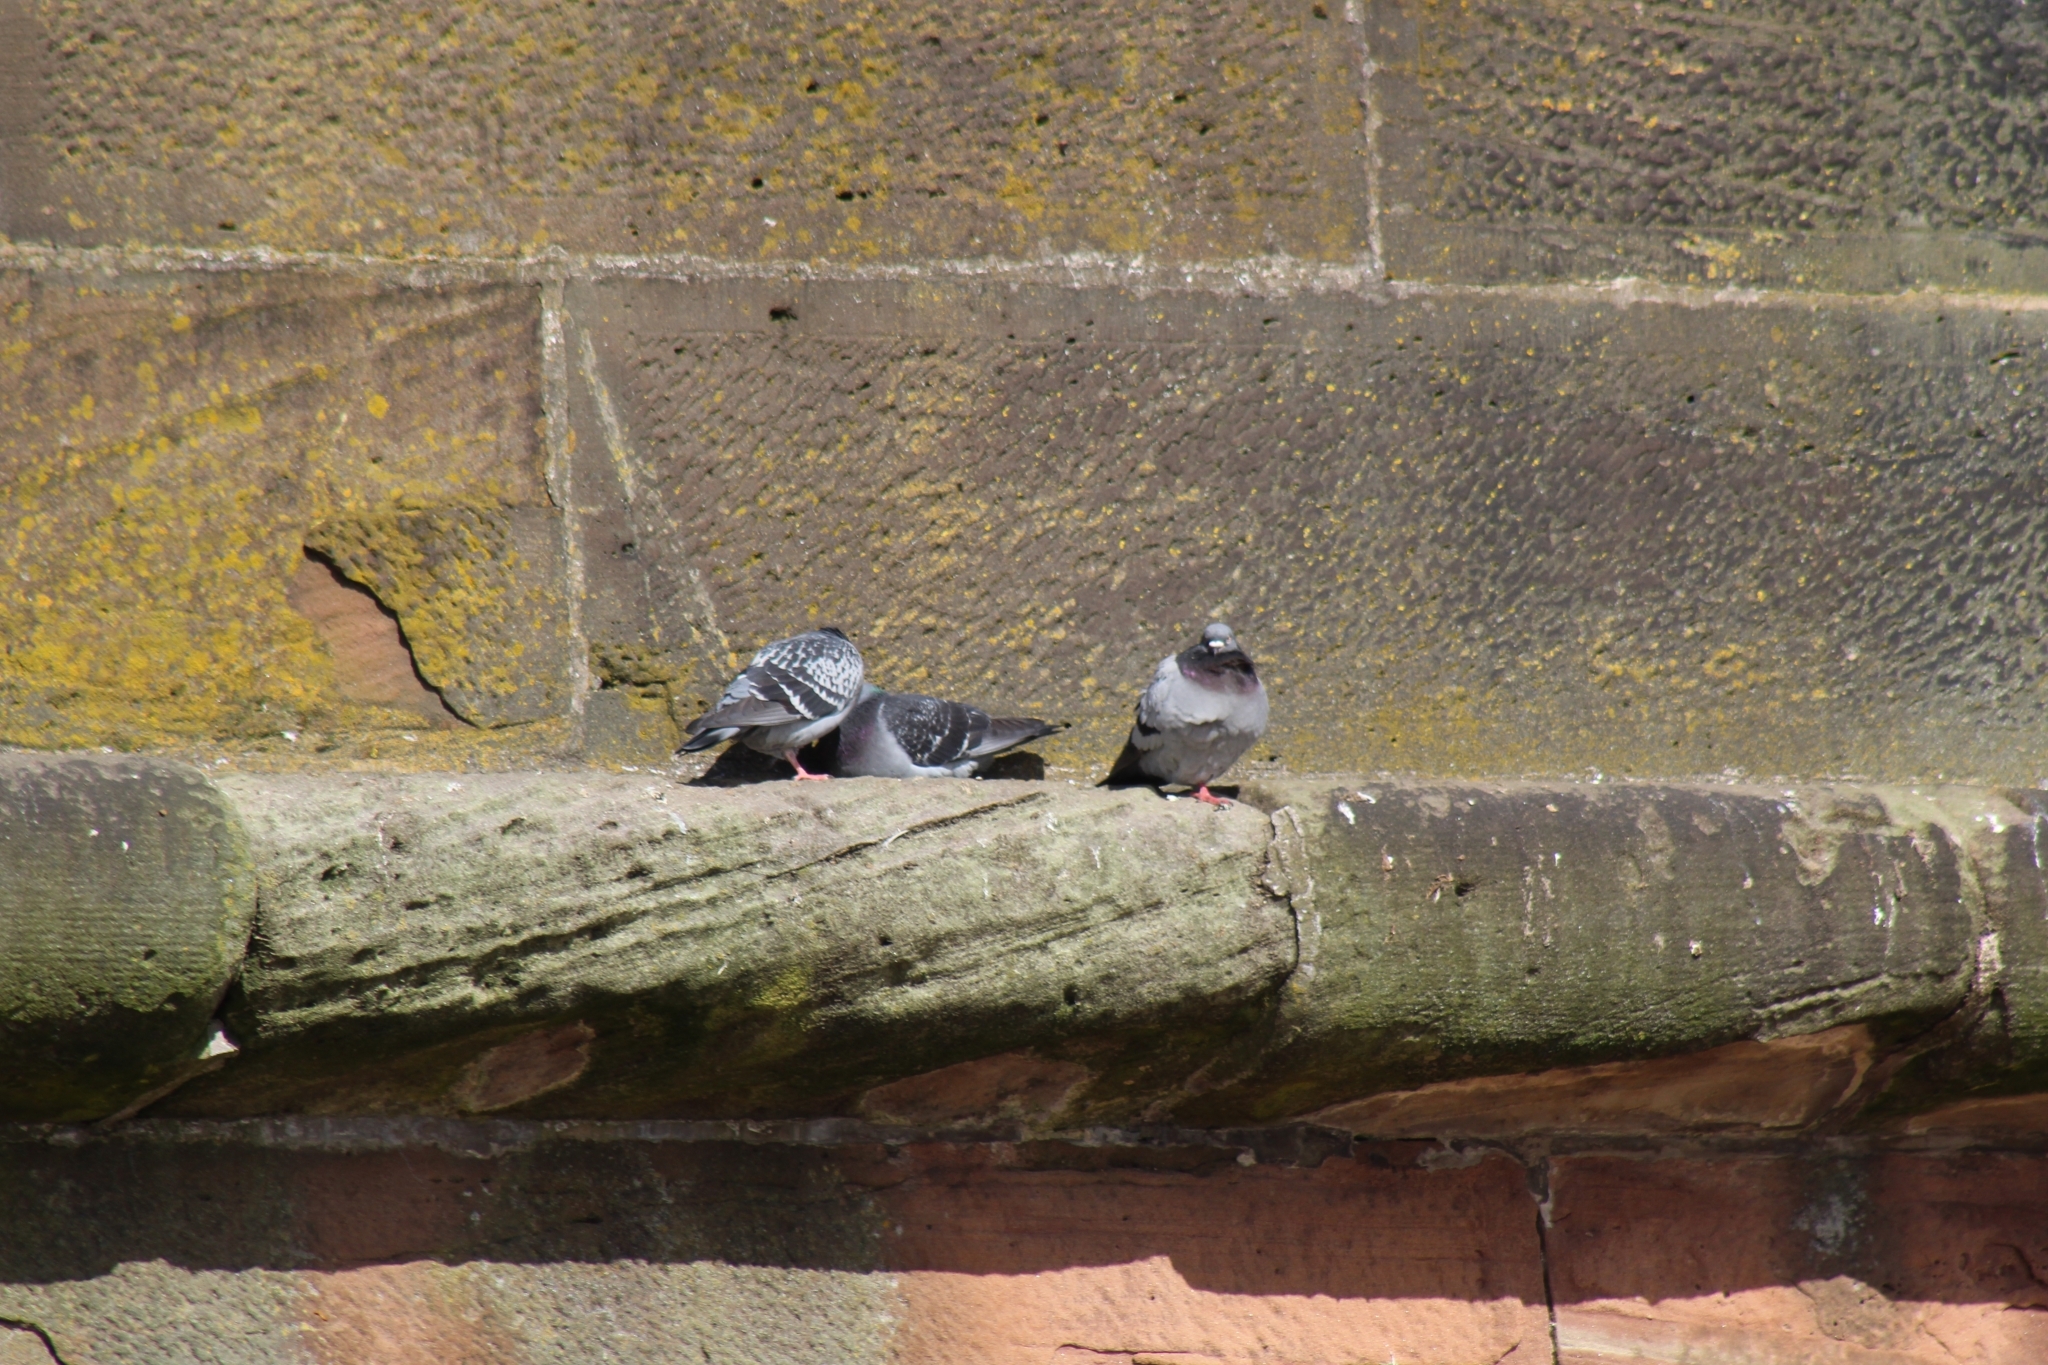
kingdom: Animalia
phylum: Chordata
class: Aves
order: Columbiformes
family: Columbidae
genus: Columba
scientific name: Columba livia
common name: Rock pigeon
